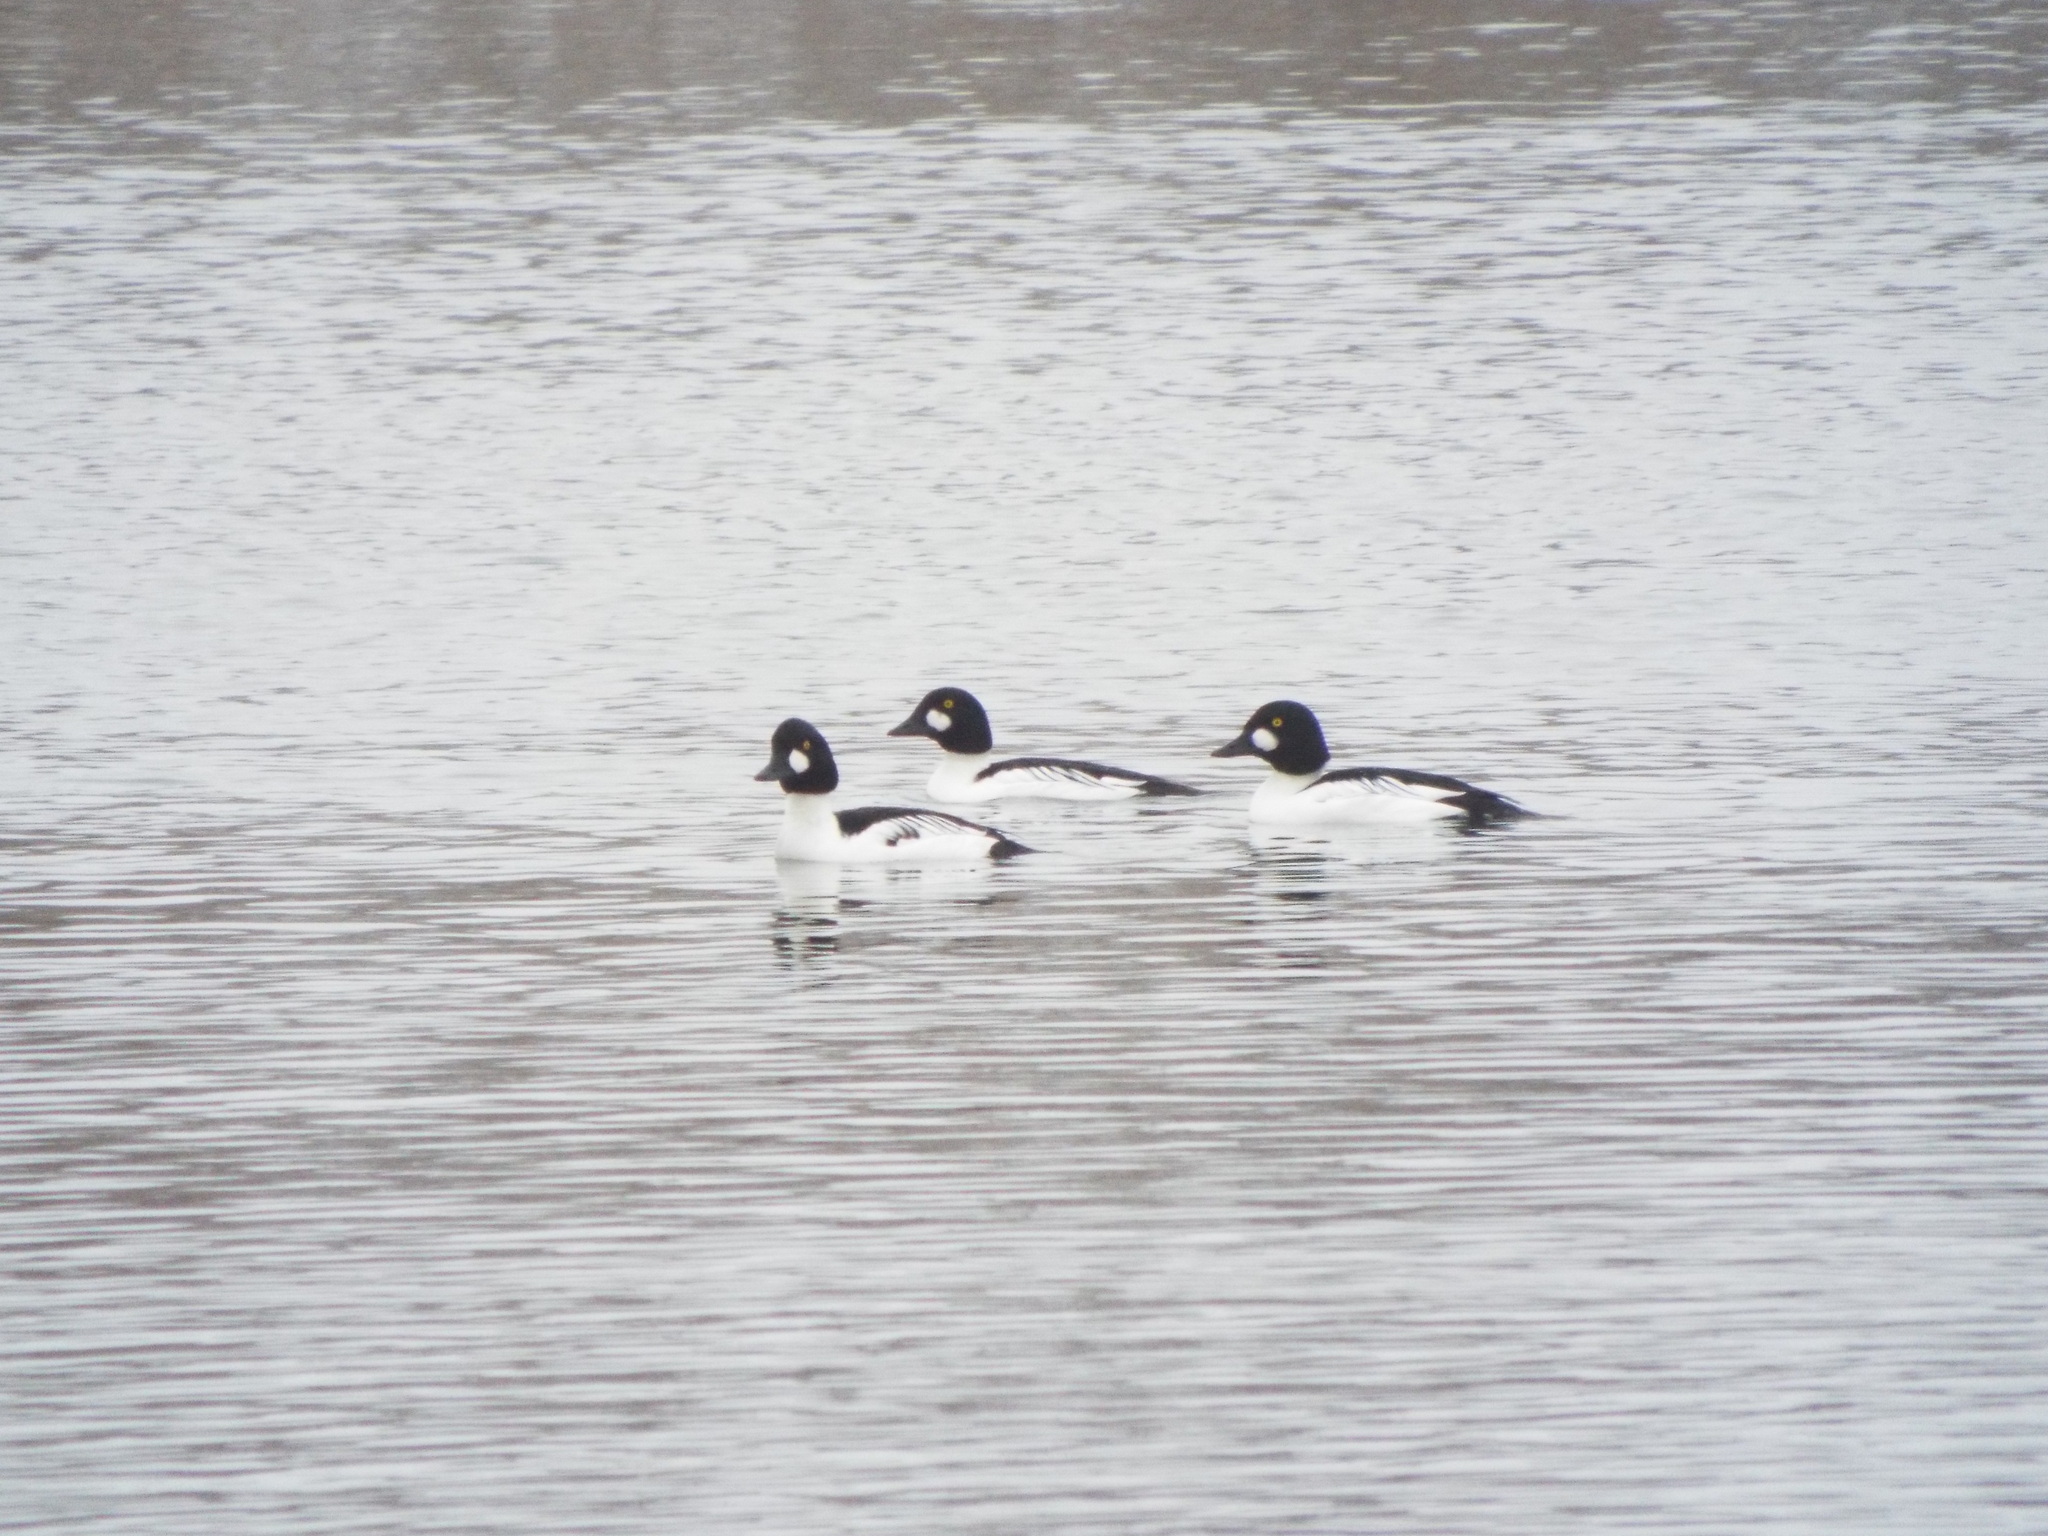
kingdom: Animalia
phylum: Chordata
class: Aves
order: Anseriformes
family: Anatidae
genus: Bucephala
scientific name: Bucephala clangula
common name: Common goldeneye
